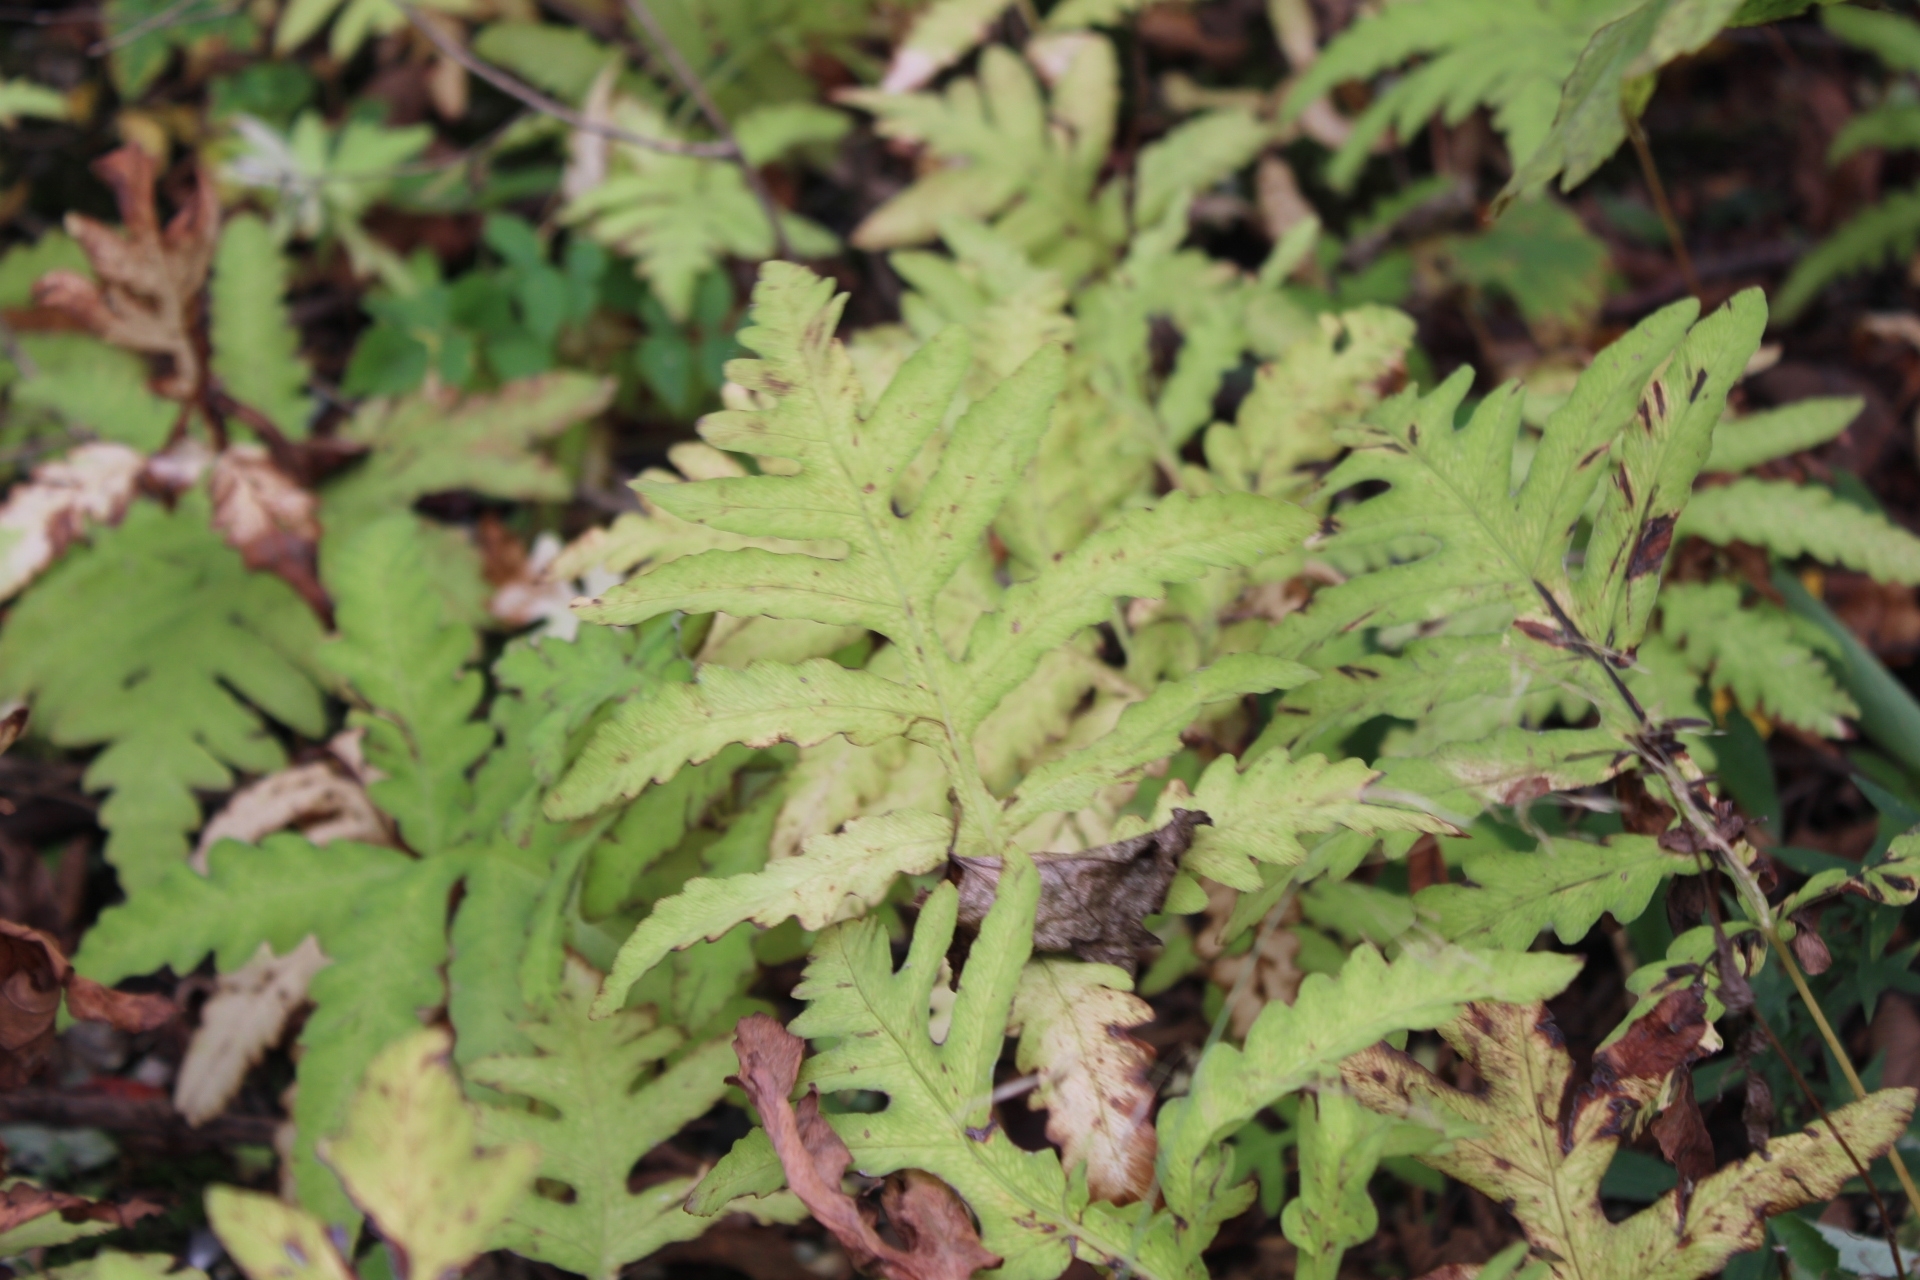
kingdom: Plantae
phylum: Tracheophyta
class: Polypodiopsida
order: Polypodiales
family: Onocleaceae
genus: Onoclea
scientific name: Onoclea sensibilis
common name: Sensitive fern
